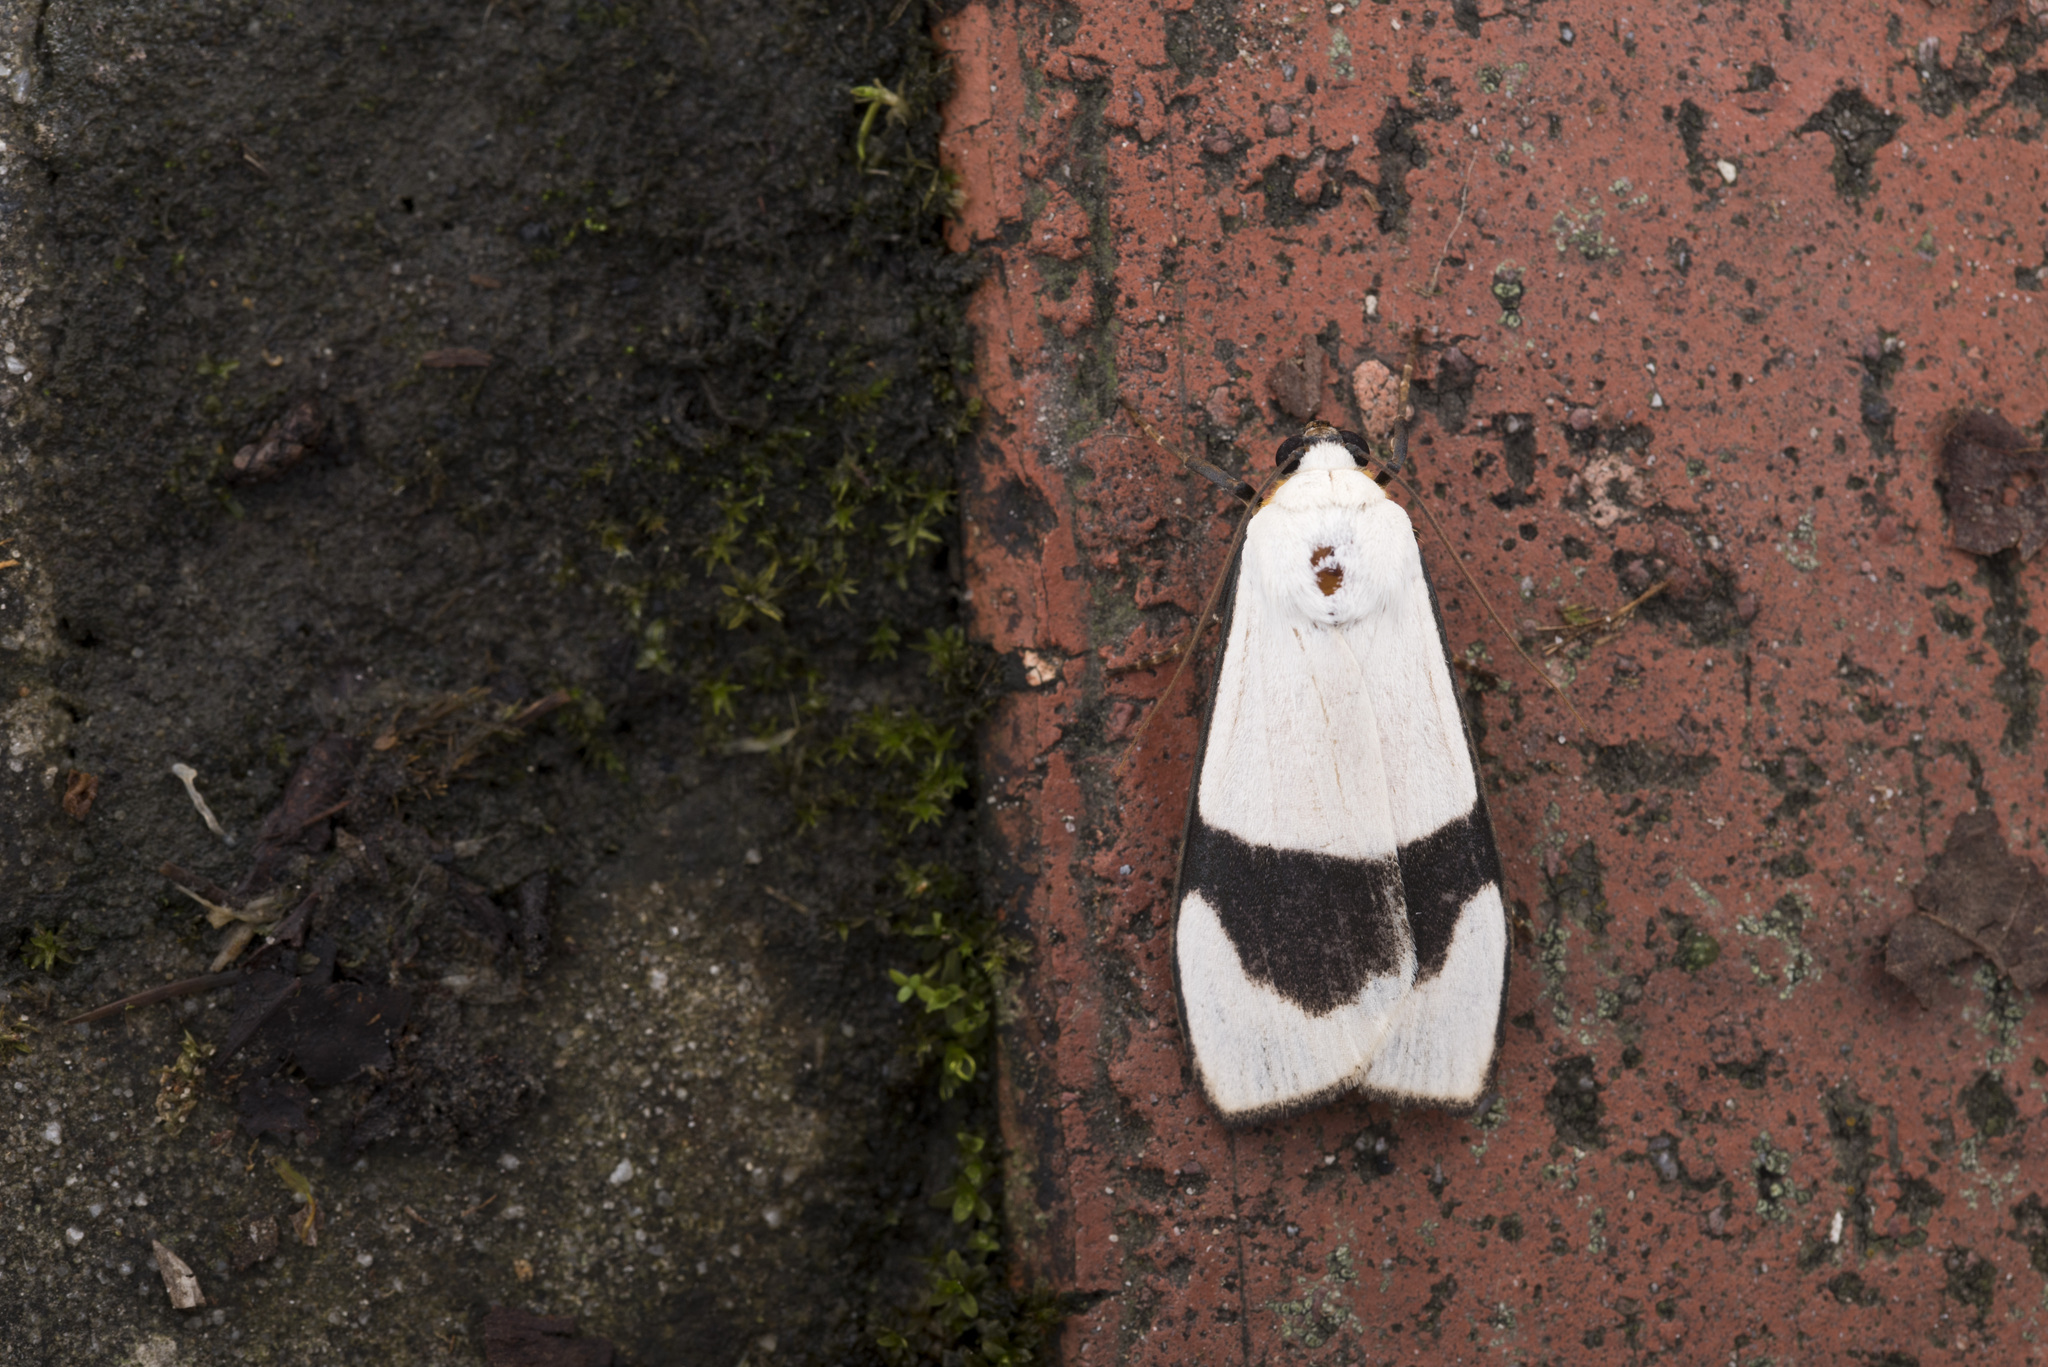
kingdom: Animalia
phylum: Arthropoda
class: Insecta
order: Lepidoptera
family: Erebidae
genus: Vamuna
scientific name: Vamuna alboluteola
